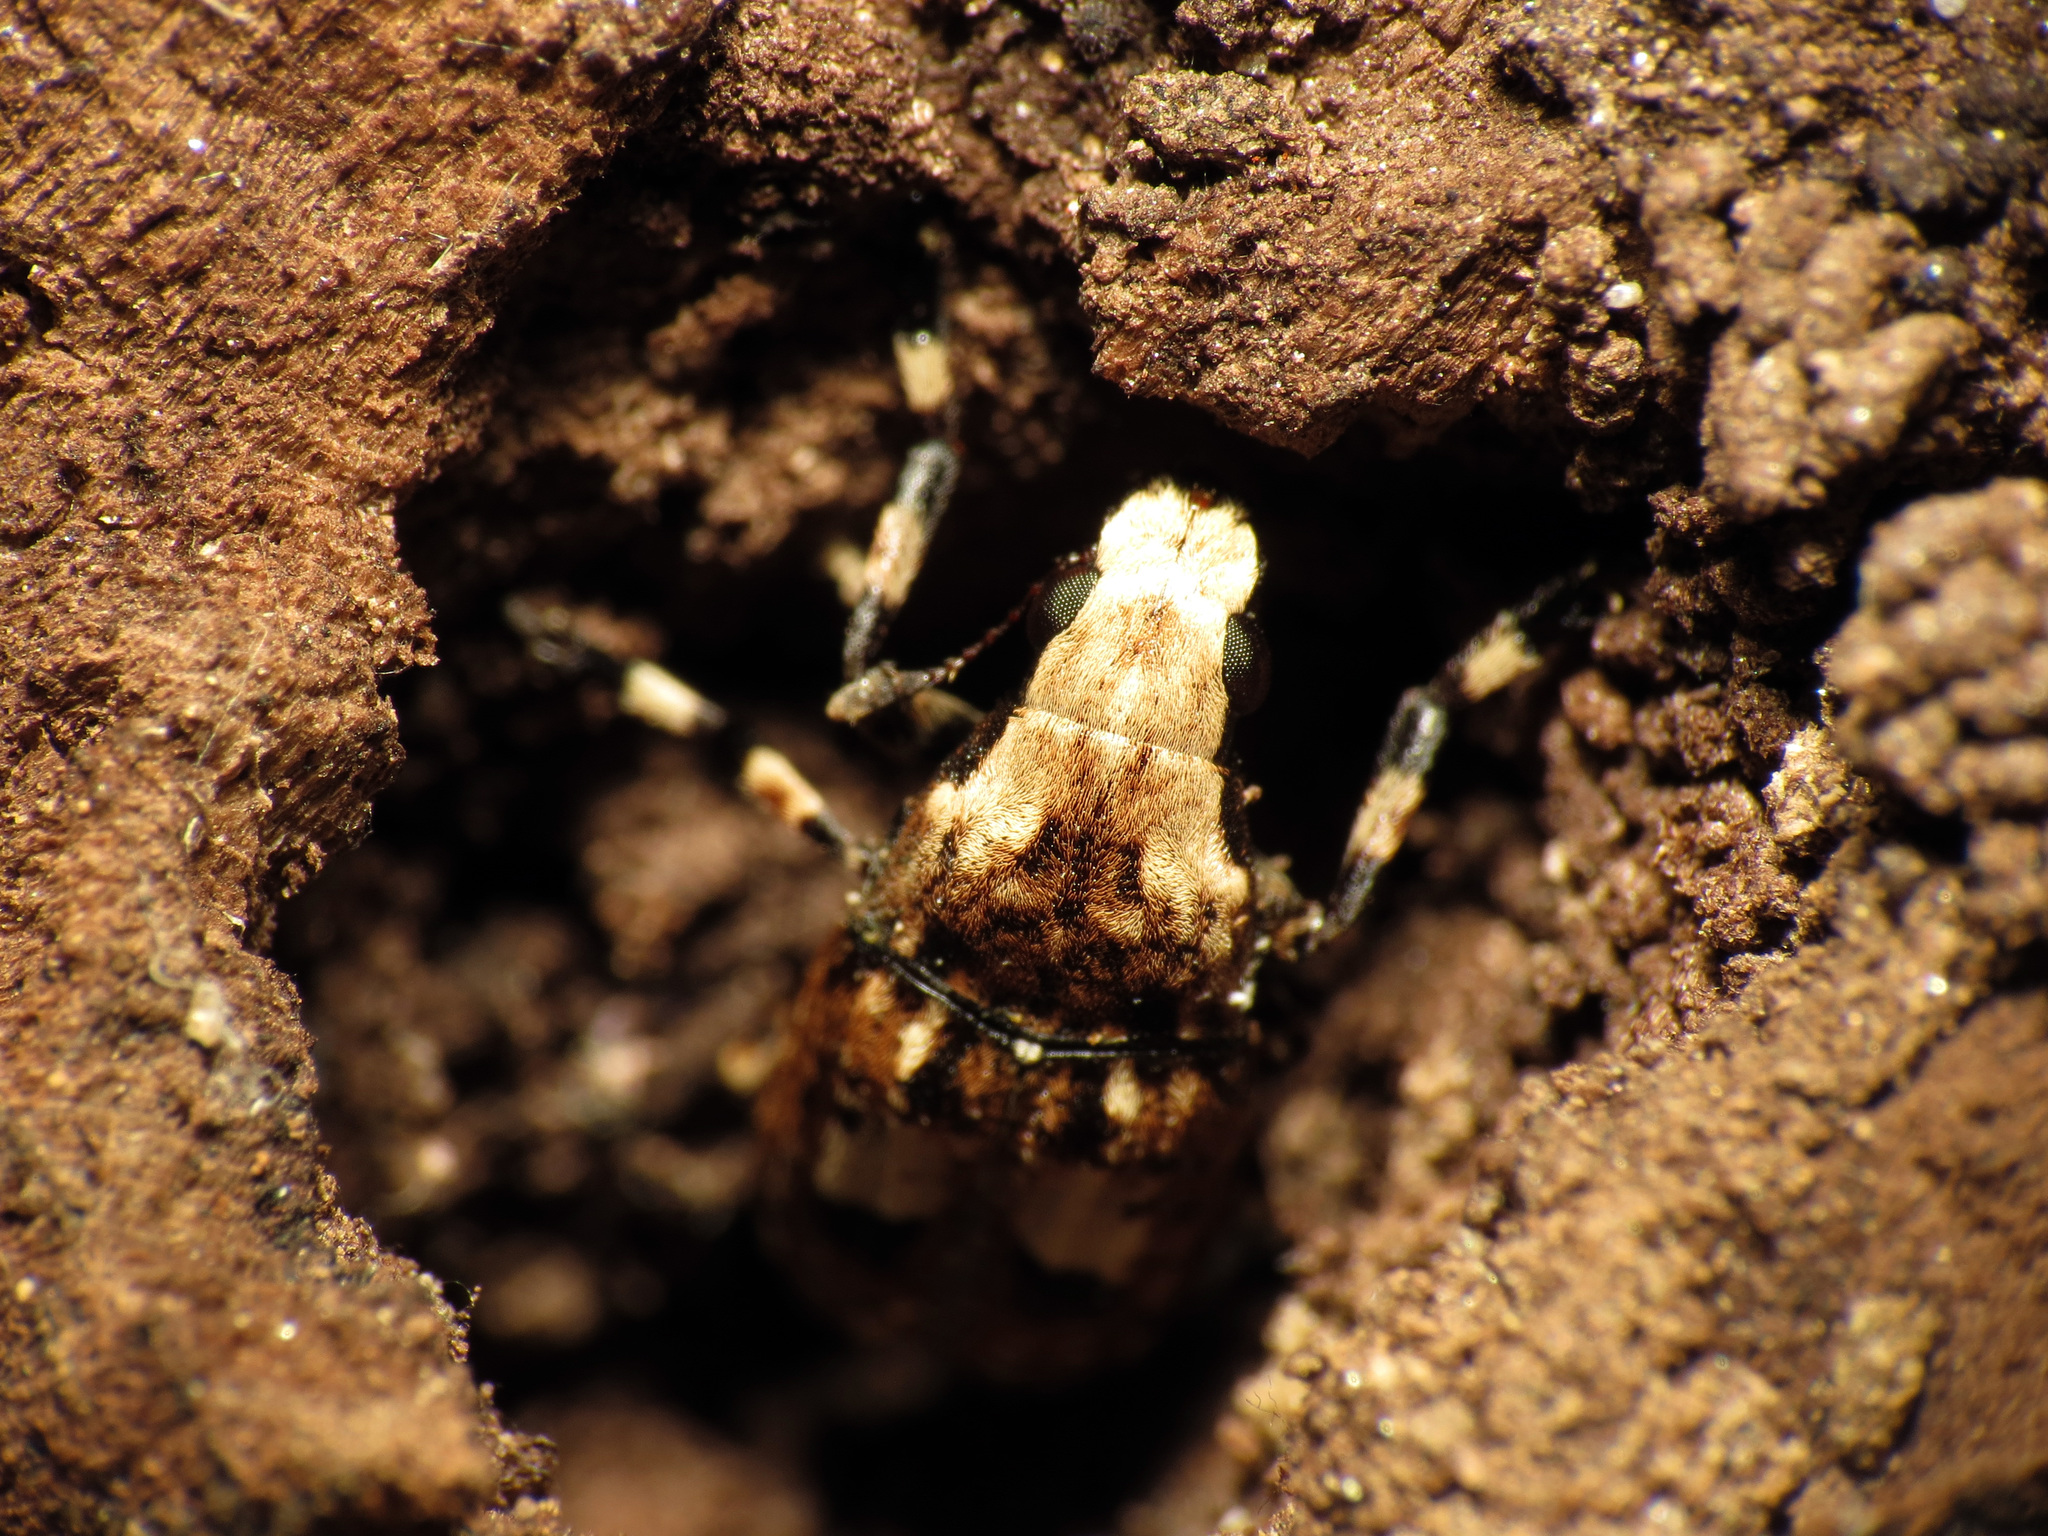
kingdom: Animalia
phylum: Arthropoda
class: Insecta
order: Coleoptera
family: Anthribidae
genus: Euparius
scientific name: Euparius marmoreus
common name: Marbled fungus weevil
